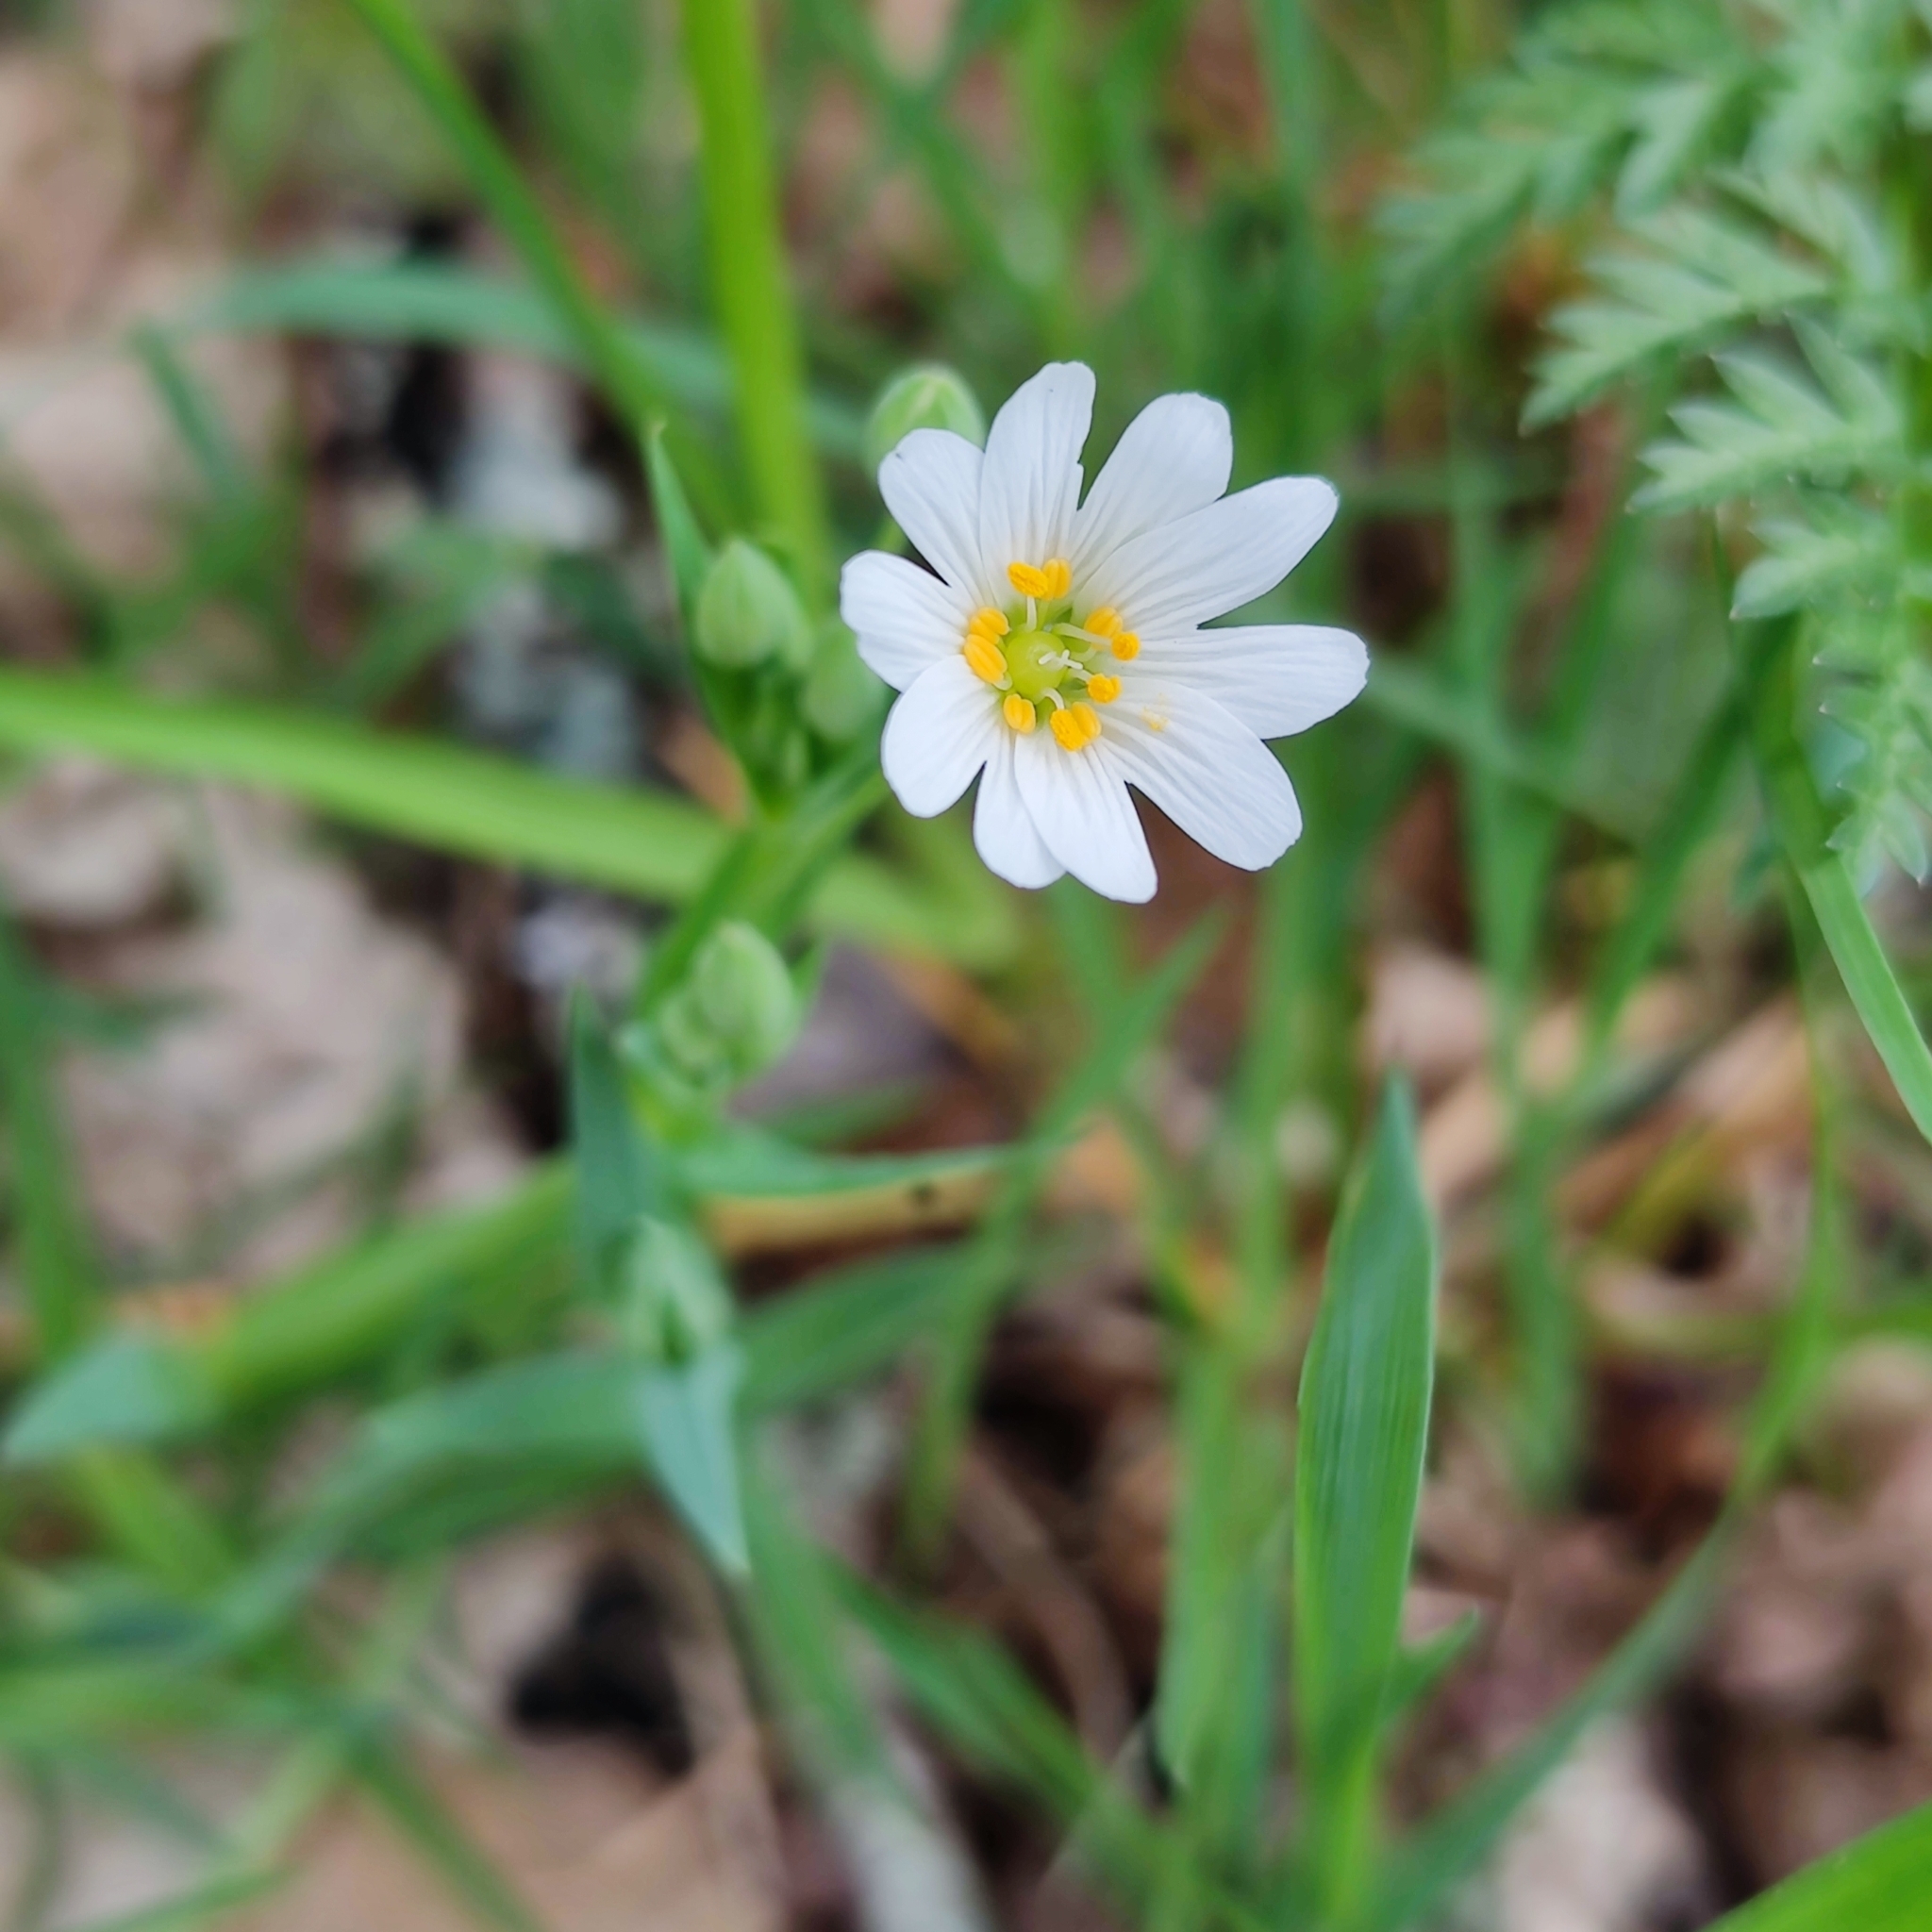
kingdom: Plantae
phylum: Tracheophyta
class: Magnoliopsida
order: Caryophyllales
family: Caryophyllaceae
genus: Rabelera
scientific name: Rabelera holostea
